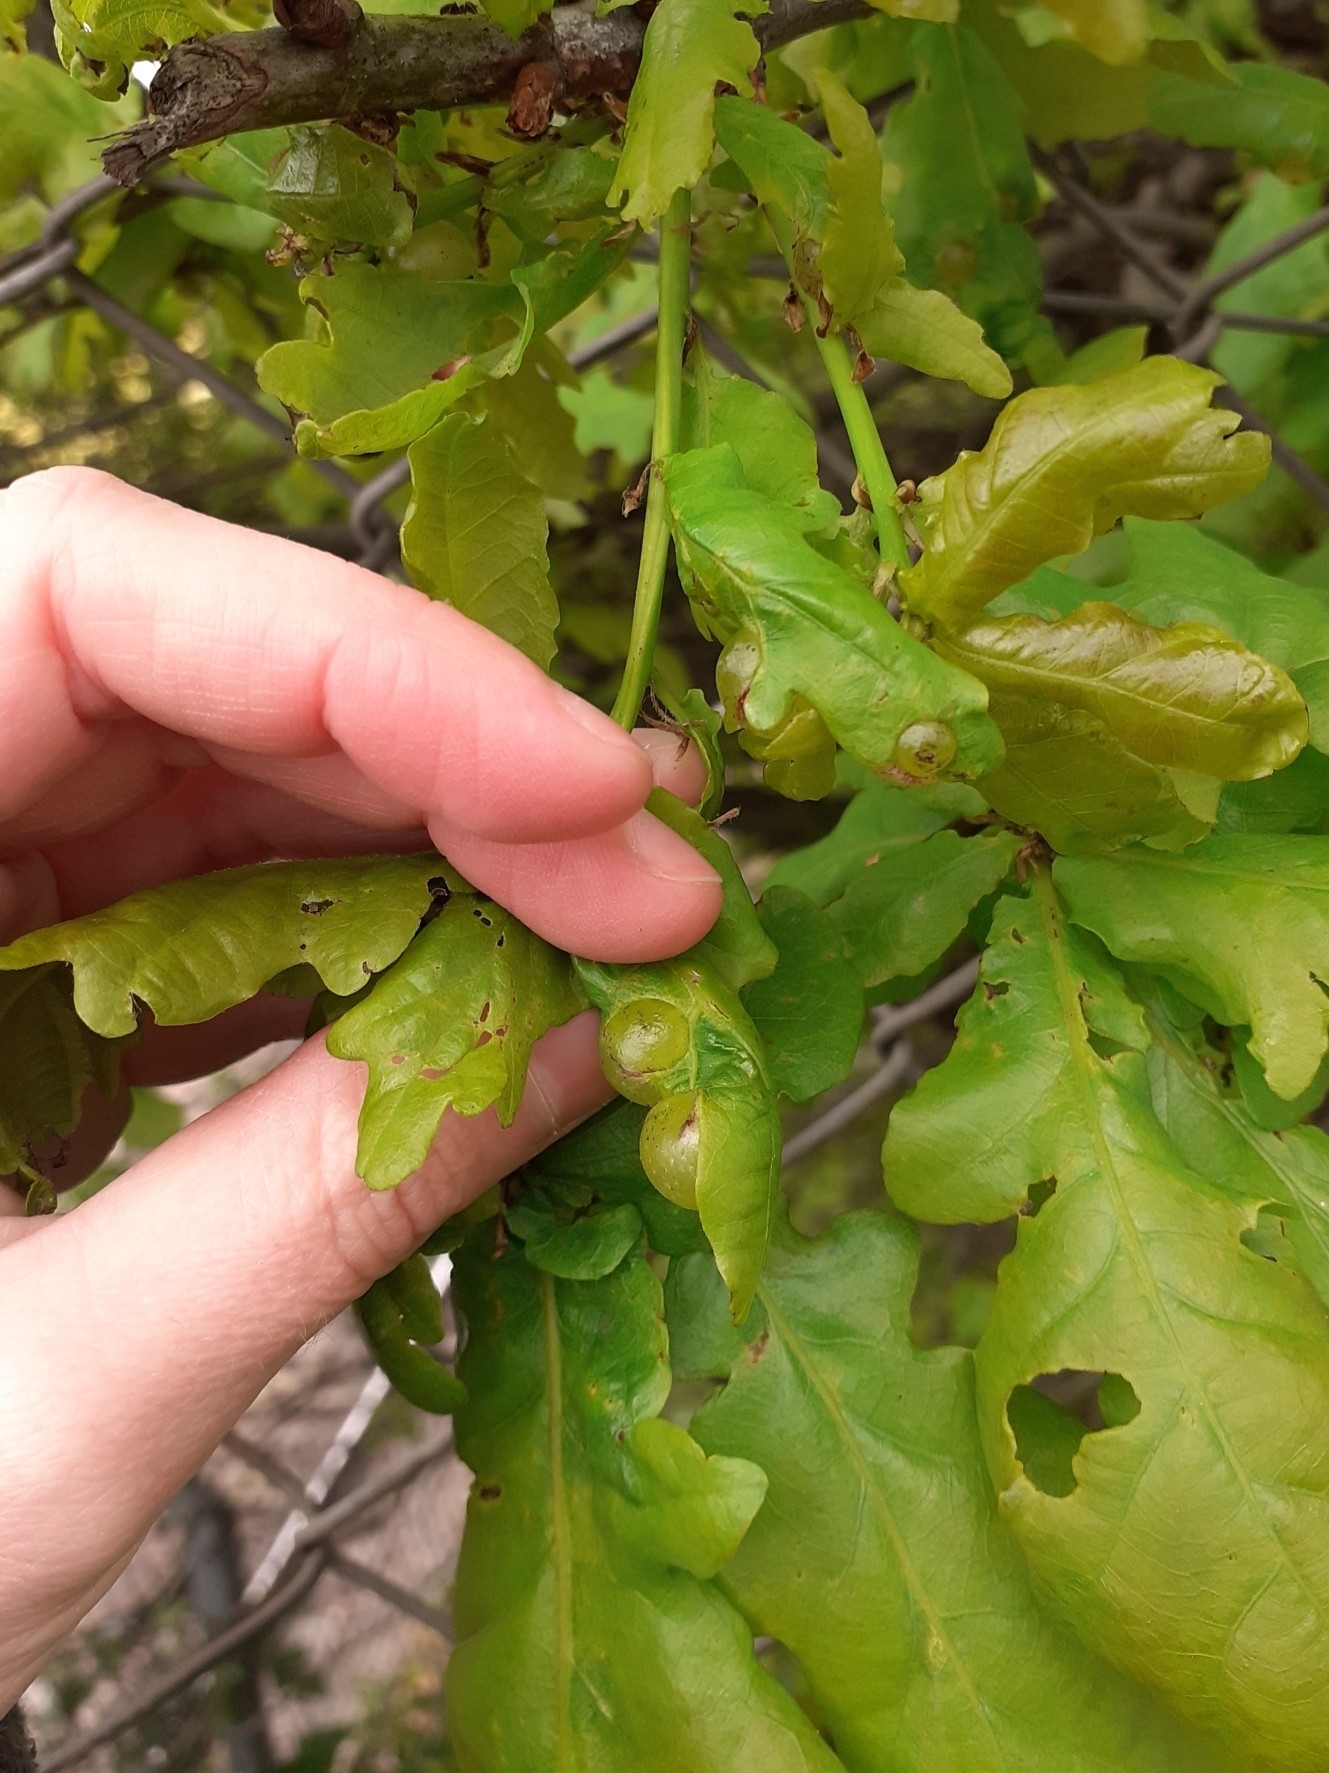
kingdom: Animalia
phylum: Arthropoda
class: Insecta
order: Hymenoptera
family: Cynipidae
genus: Neuroterus
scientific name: Neuroterus quercusbaccarum
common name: Common spangle gall
